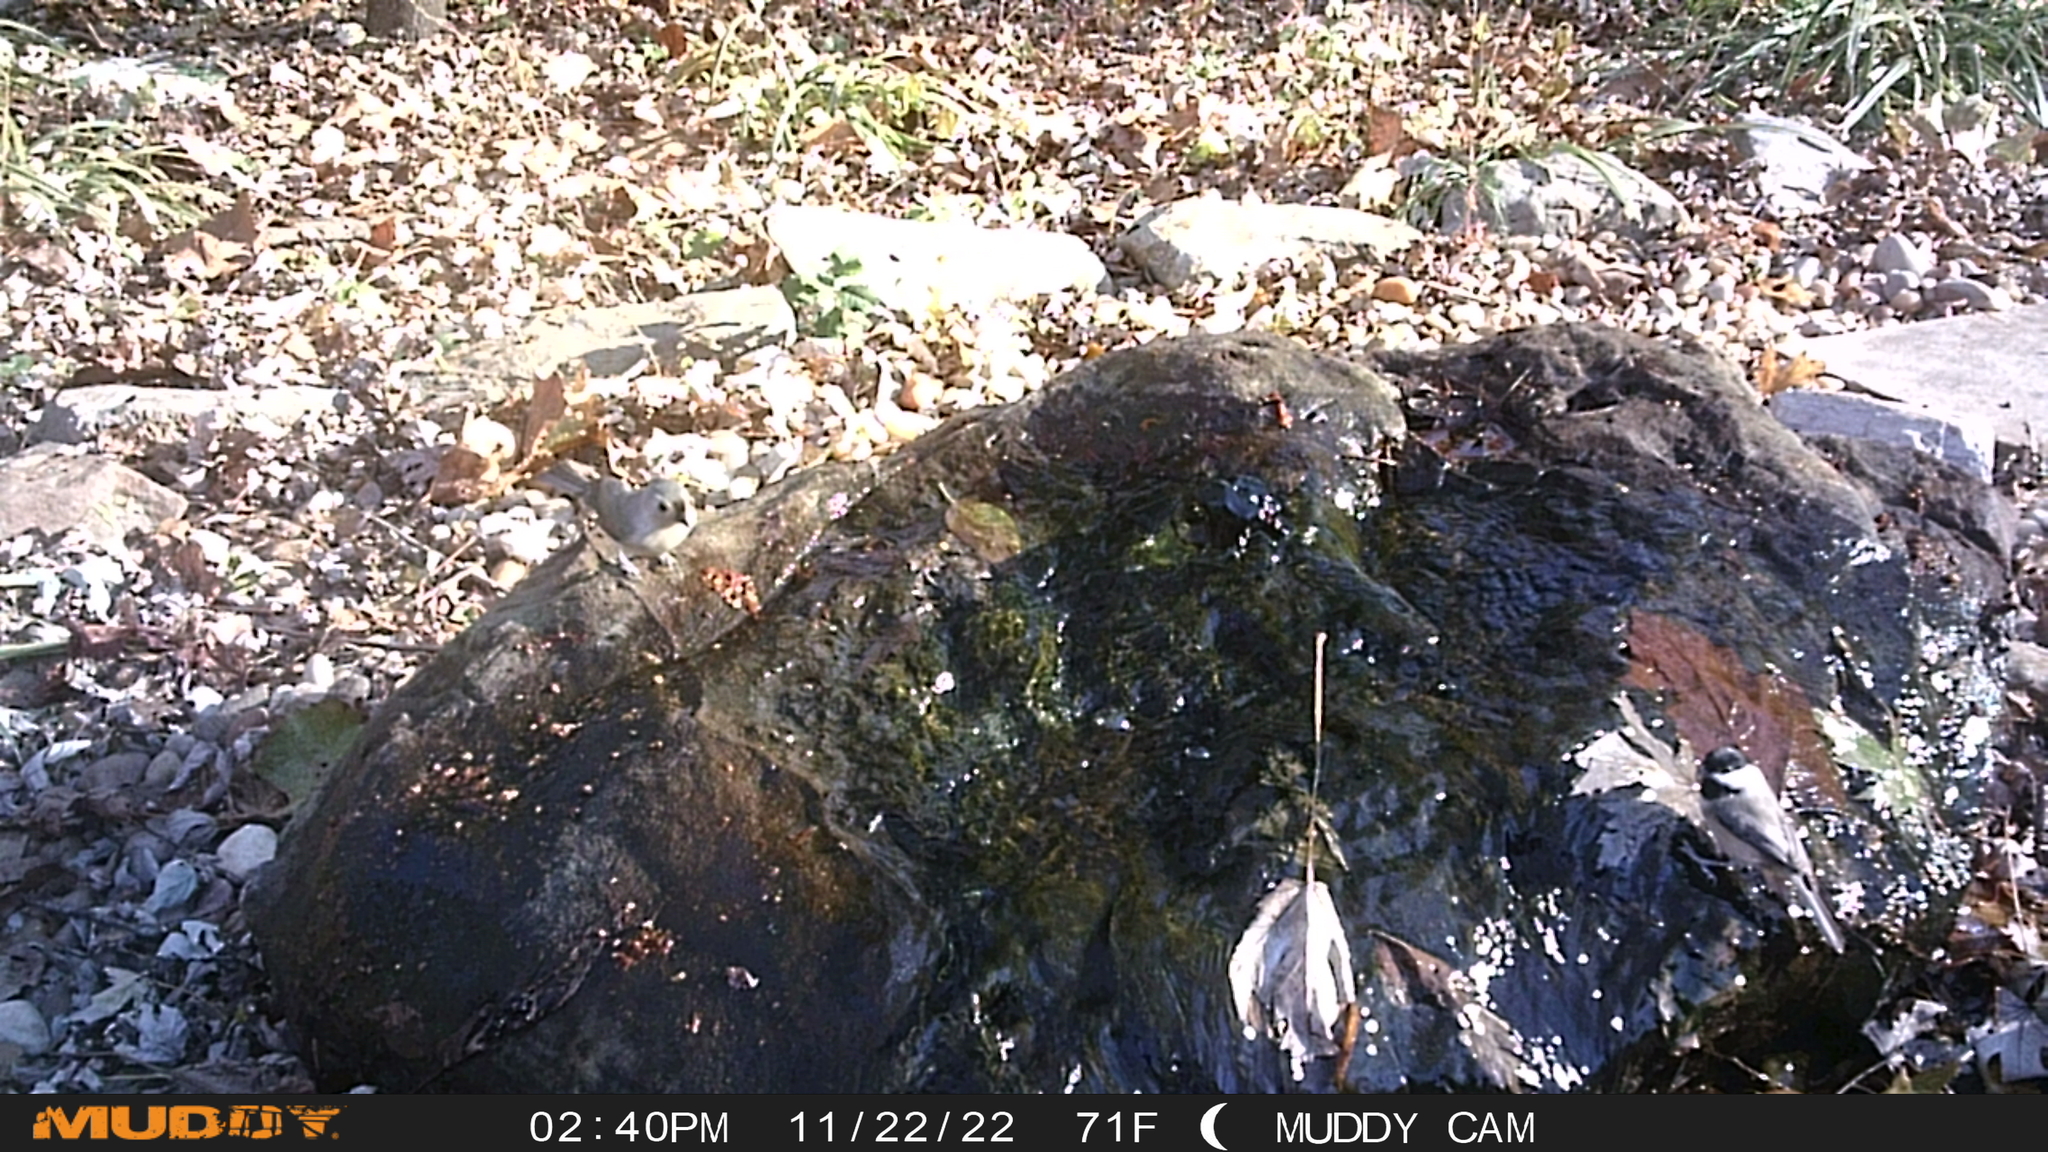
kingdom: Animalia
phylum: Chordata
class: Aves
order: Passeriformes
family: Paridae
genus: Baeolophus
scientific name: Baeolophus bicolor
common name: Tufted titmouse
